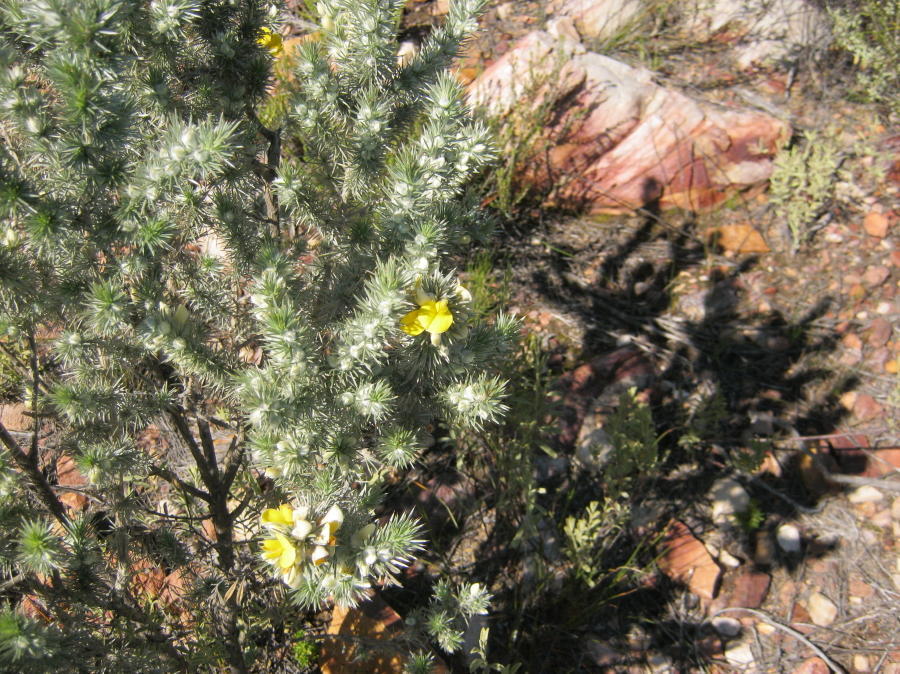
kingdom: Plantae
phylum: Tracheophyta
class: Magnoliopsida
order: Fabales
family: Fabaceae
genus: Aspalathus
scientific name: Aspalathus hystrix
